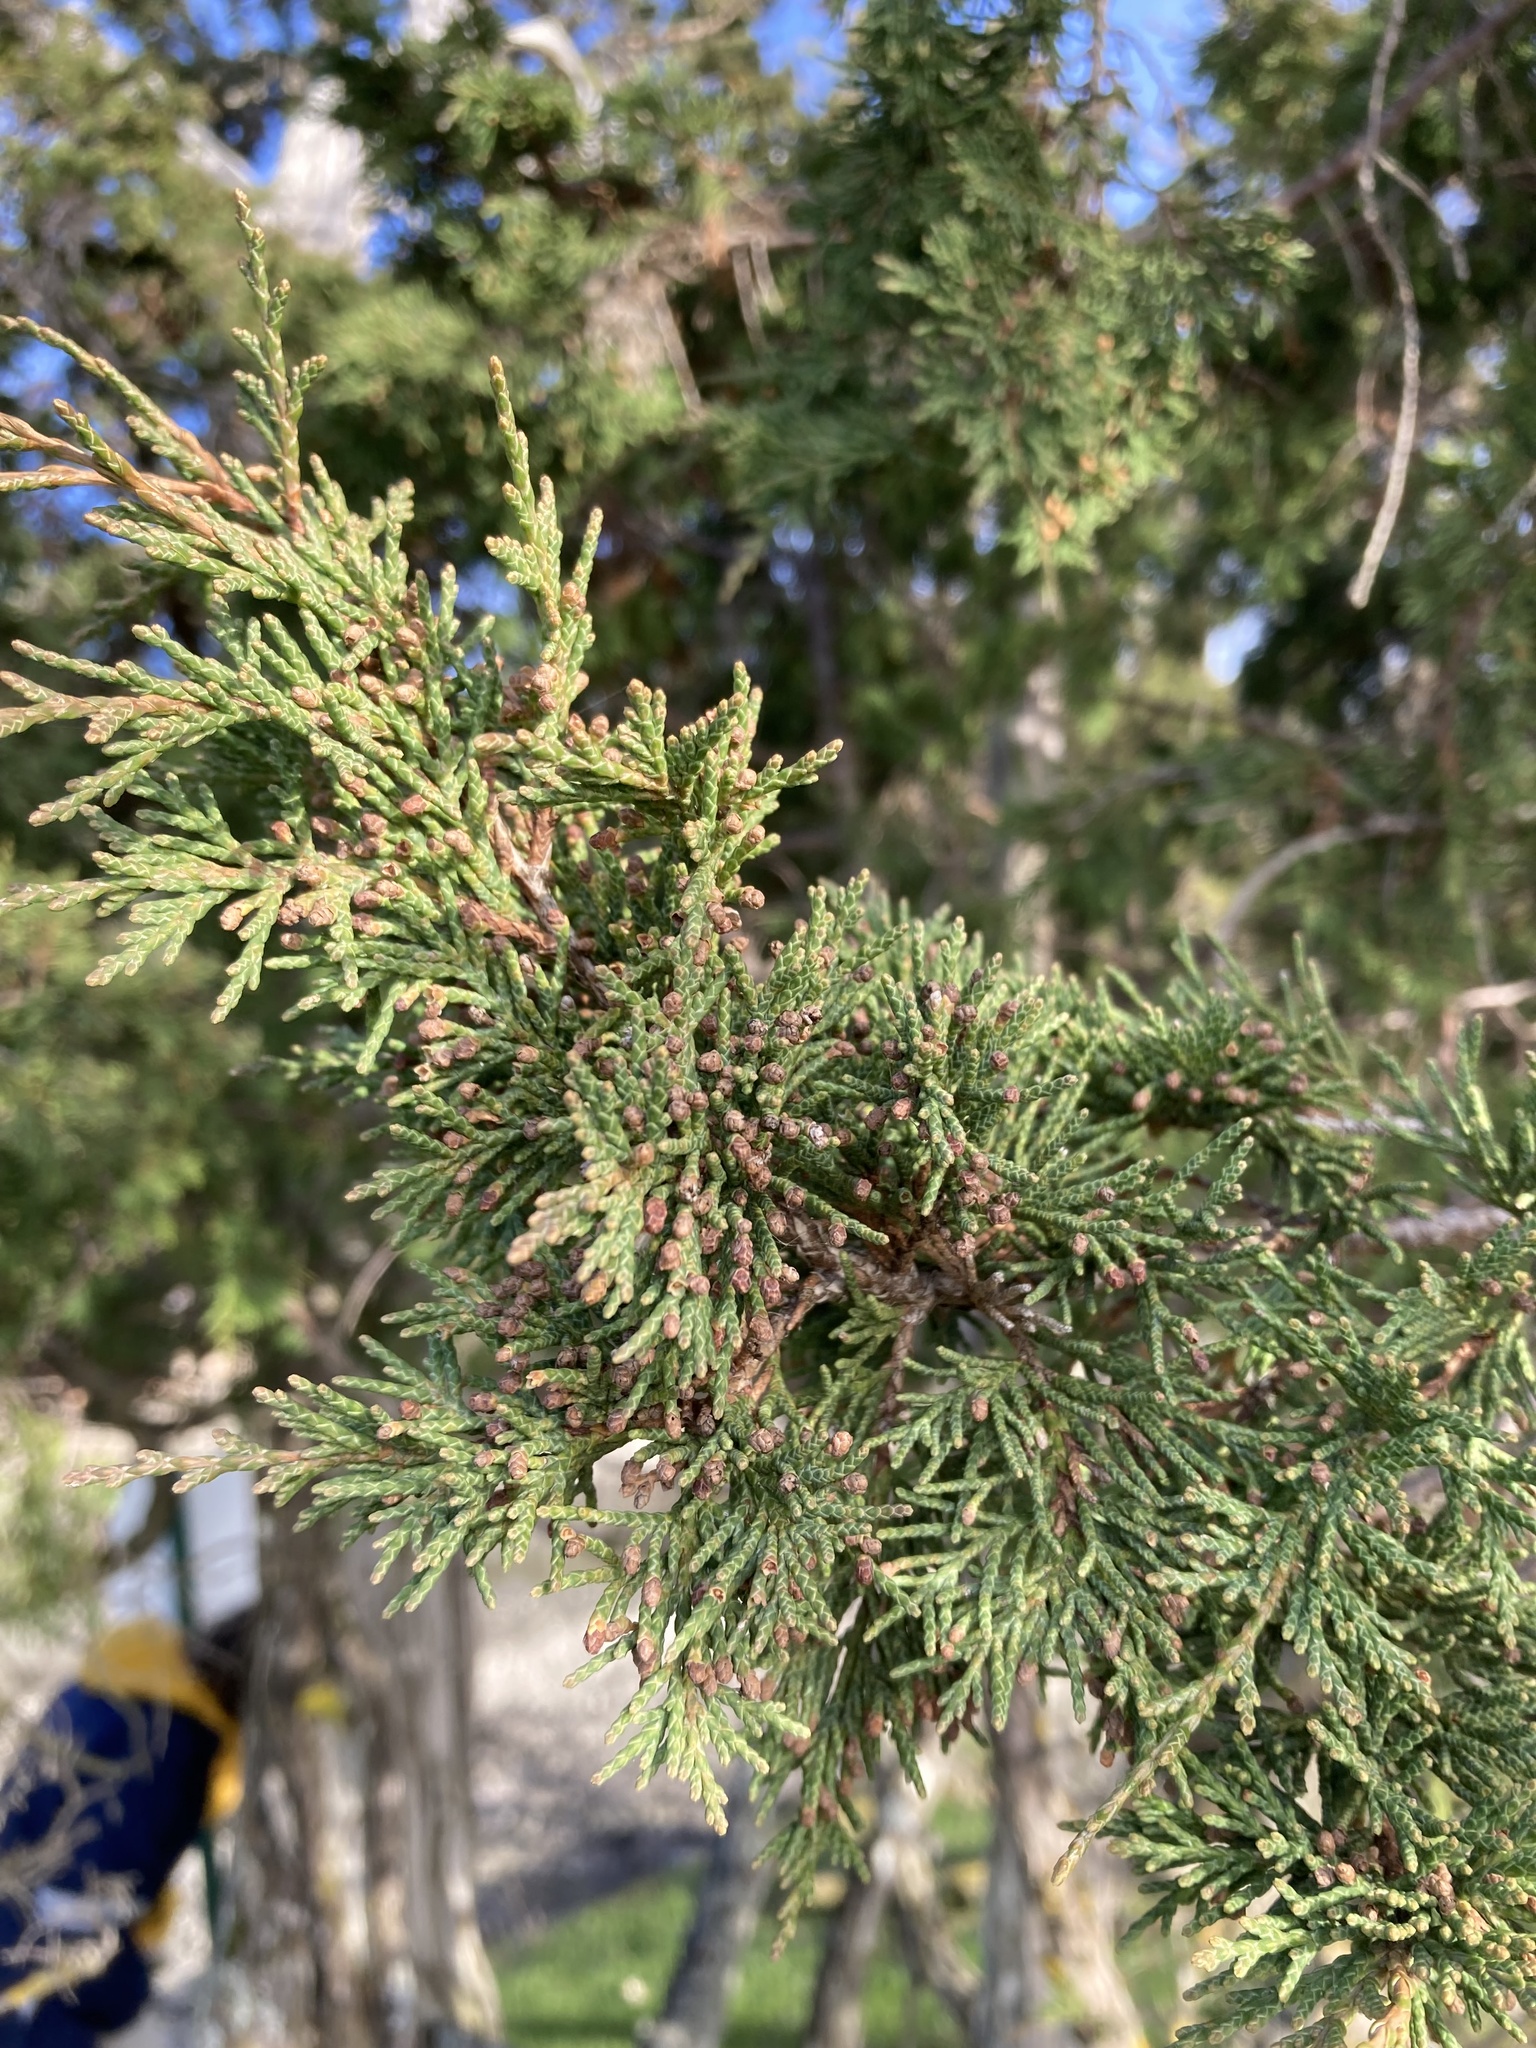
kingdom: Plantae
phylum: Tracheophyta
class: Pinopsida
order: Pinales
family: Cupressaceae
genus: Juniperus
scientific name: Juniperus scopulorum
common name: Rocky mountain juniper
